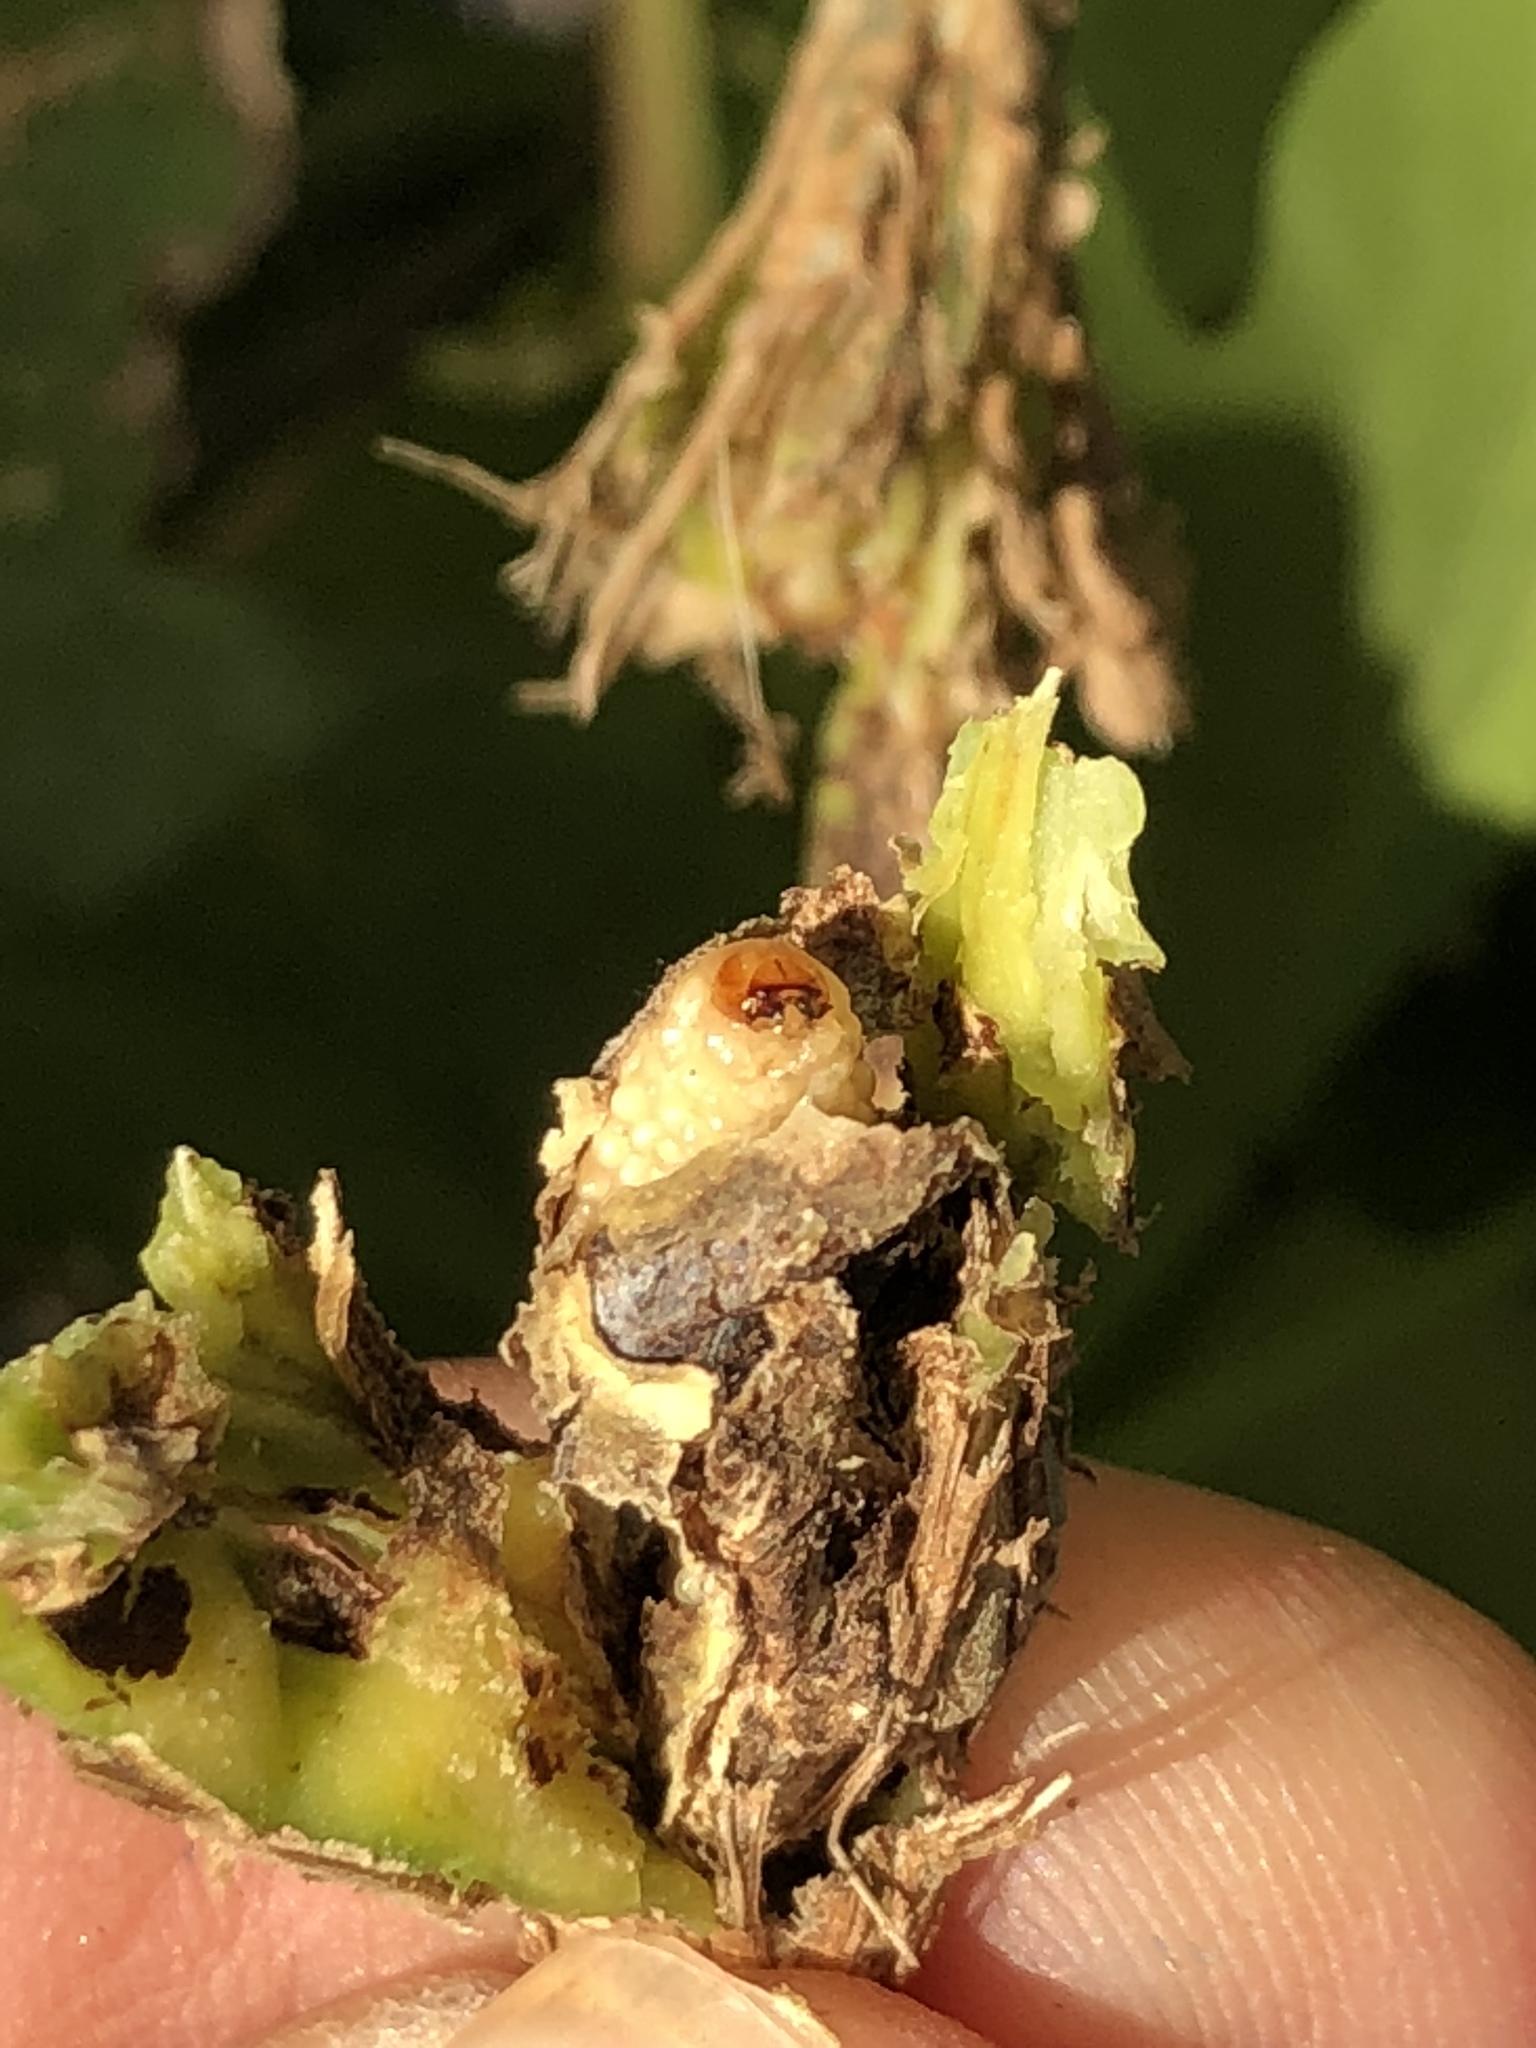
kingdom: Animalia
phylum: Arthropoda
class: Insecta
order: Coleoptera
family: Eurhynchidae
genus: Eurhinus
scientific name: Eurhinus magnificus
